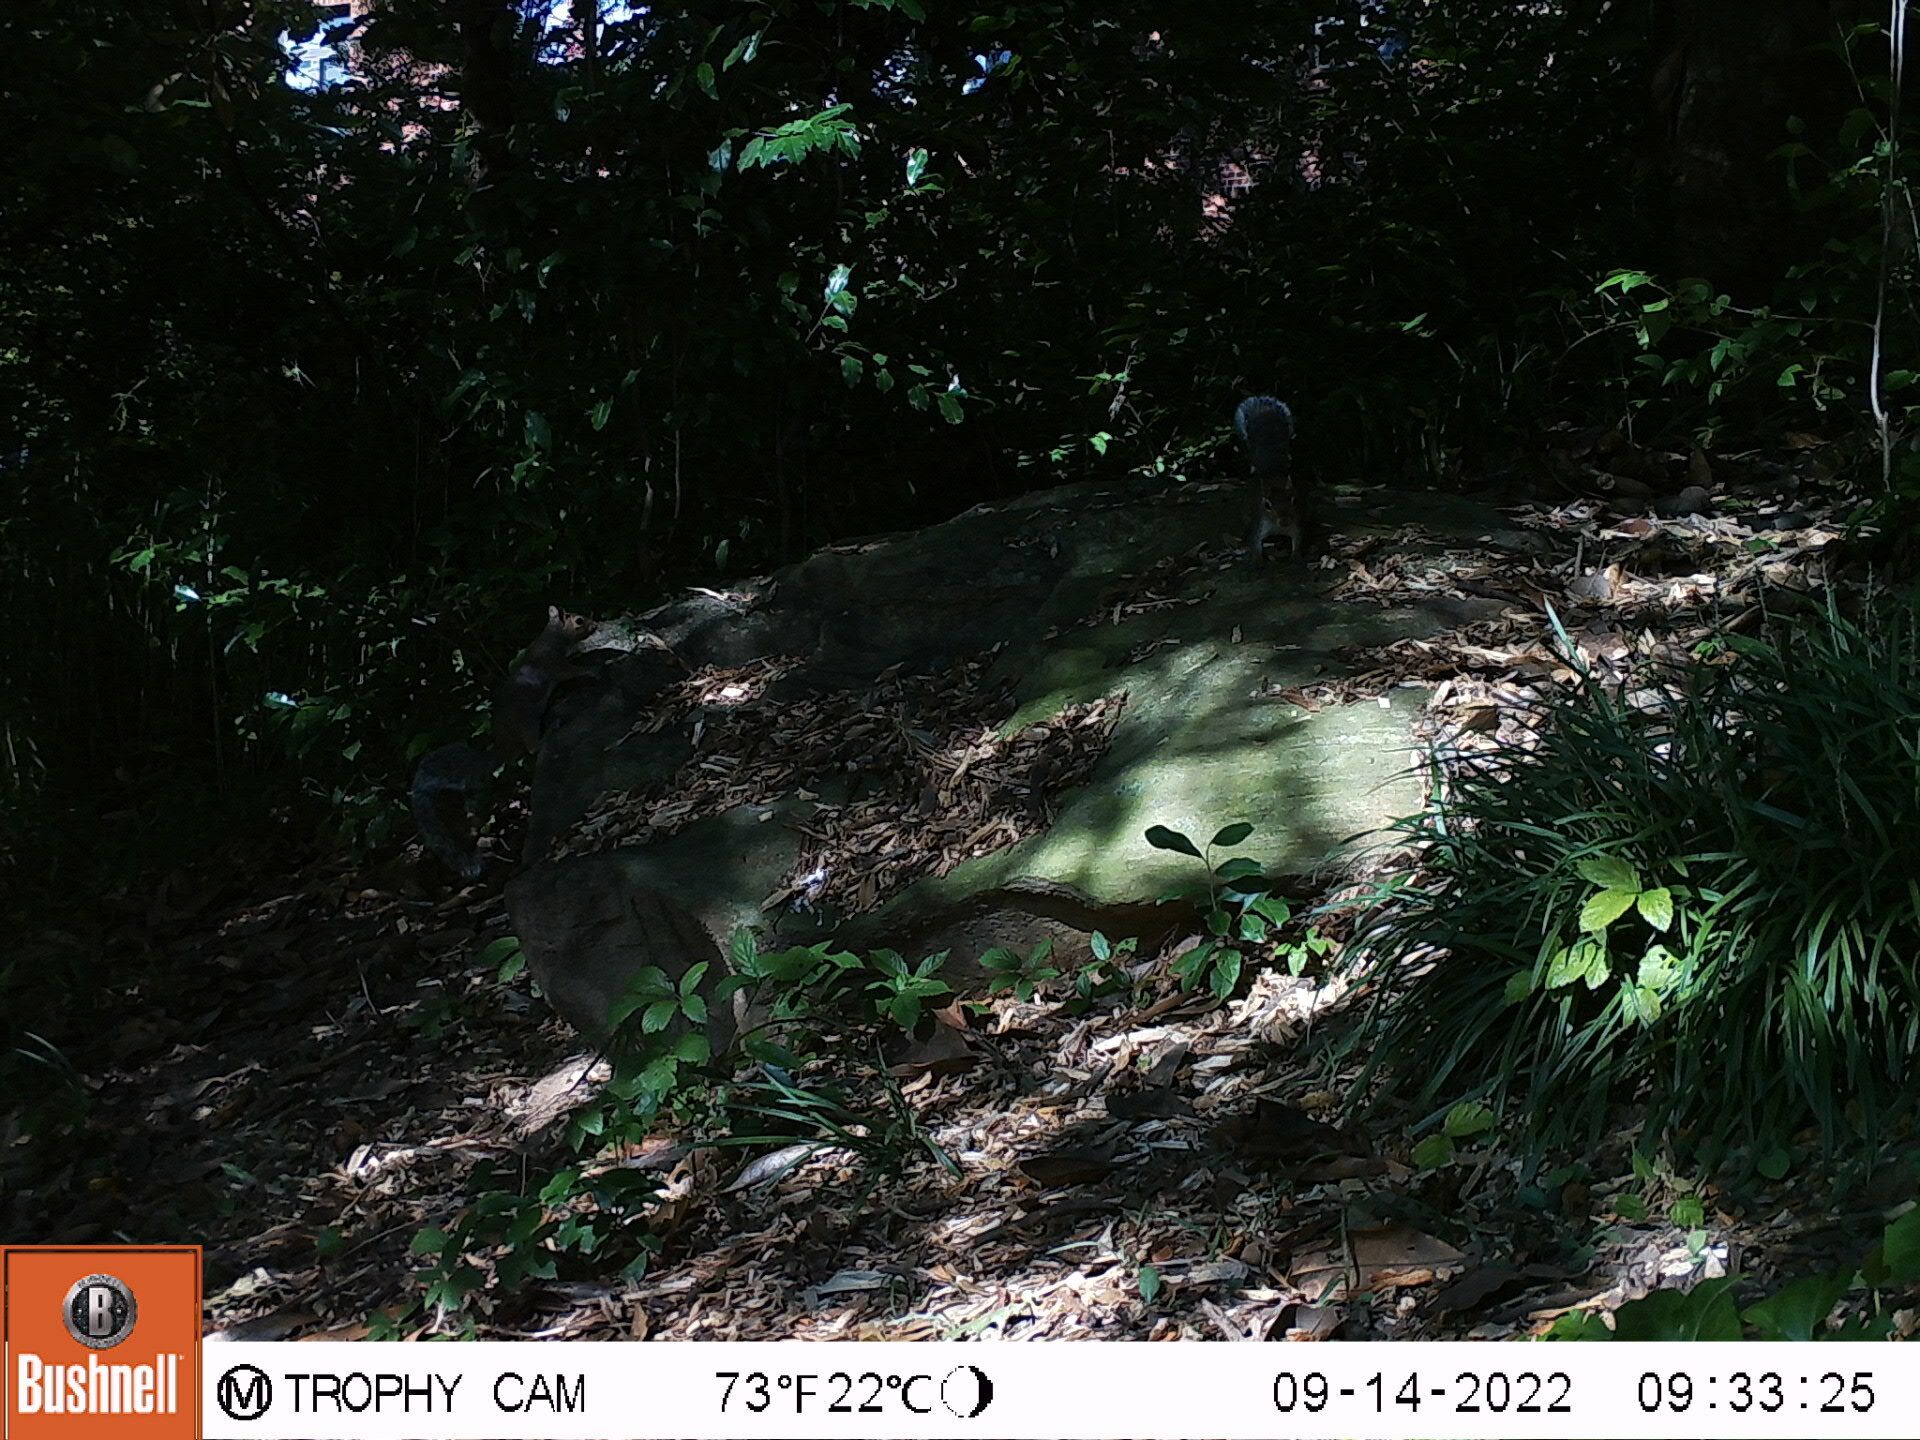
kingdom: Animalia
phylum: Chordata
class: Mammalia
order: Rodentia
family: Sciuridae
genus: Sciurus
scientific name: Sciurus carolinensis
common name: Eastern gray squirrel
